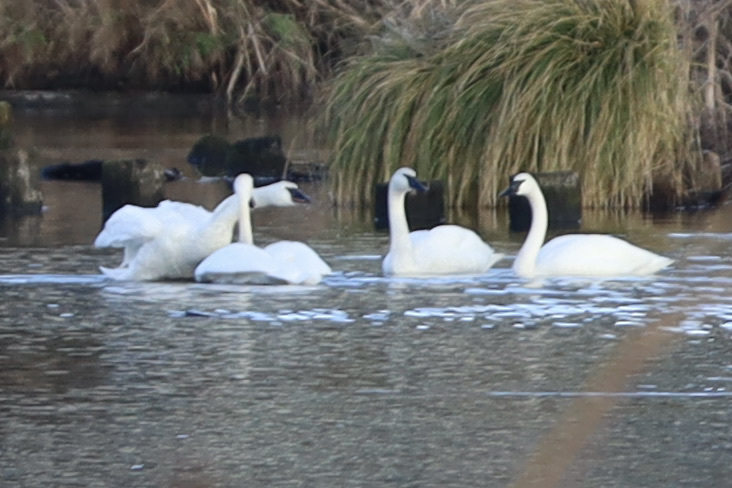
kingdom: Animalia
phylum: Chordata
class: Aves
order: Anseriformes
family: Anatidae
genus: Cygnus
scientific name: Cygnus buccinator
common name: Trumpeter swan
